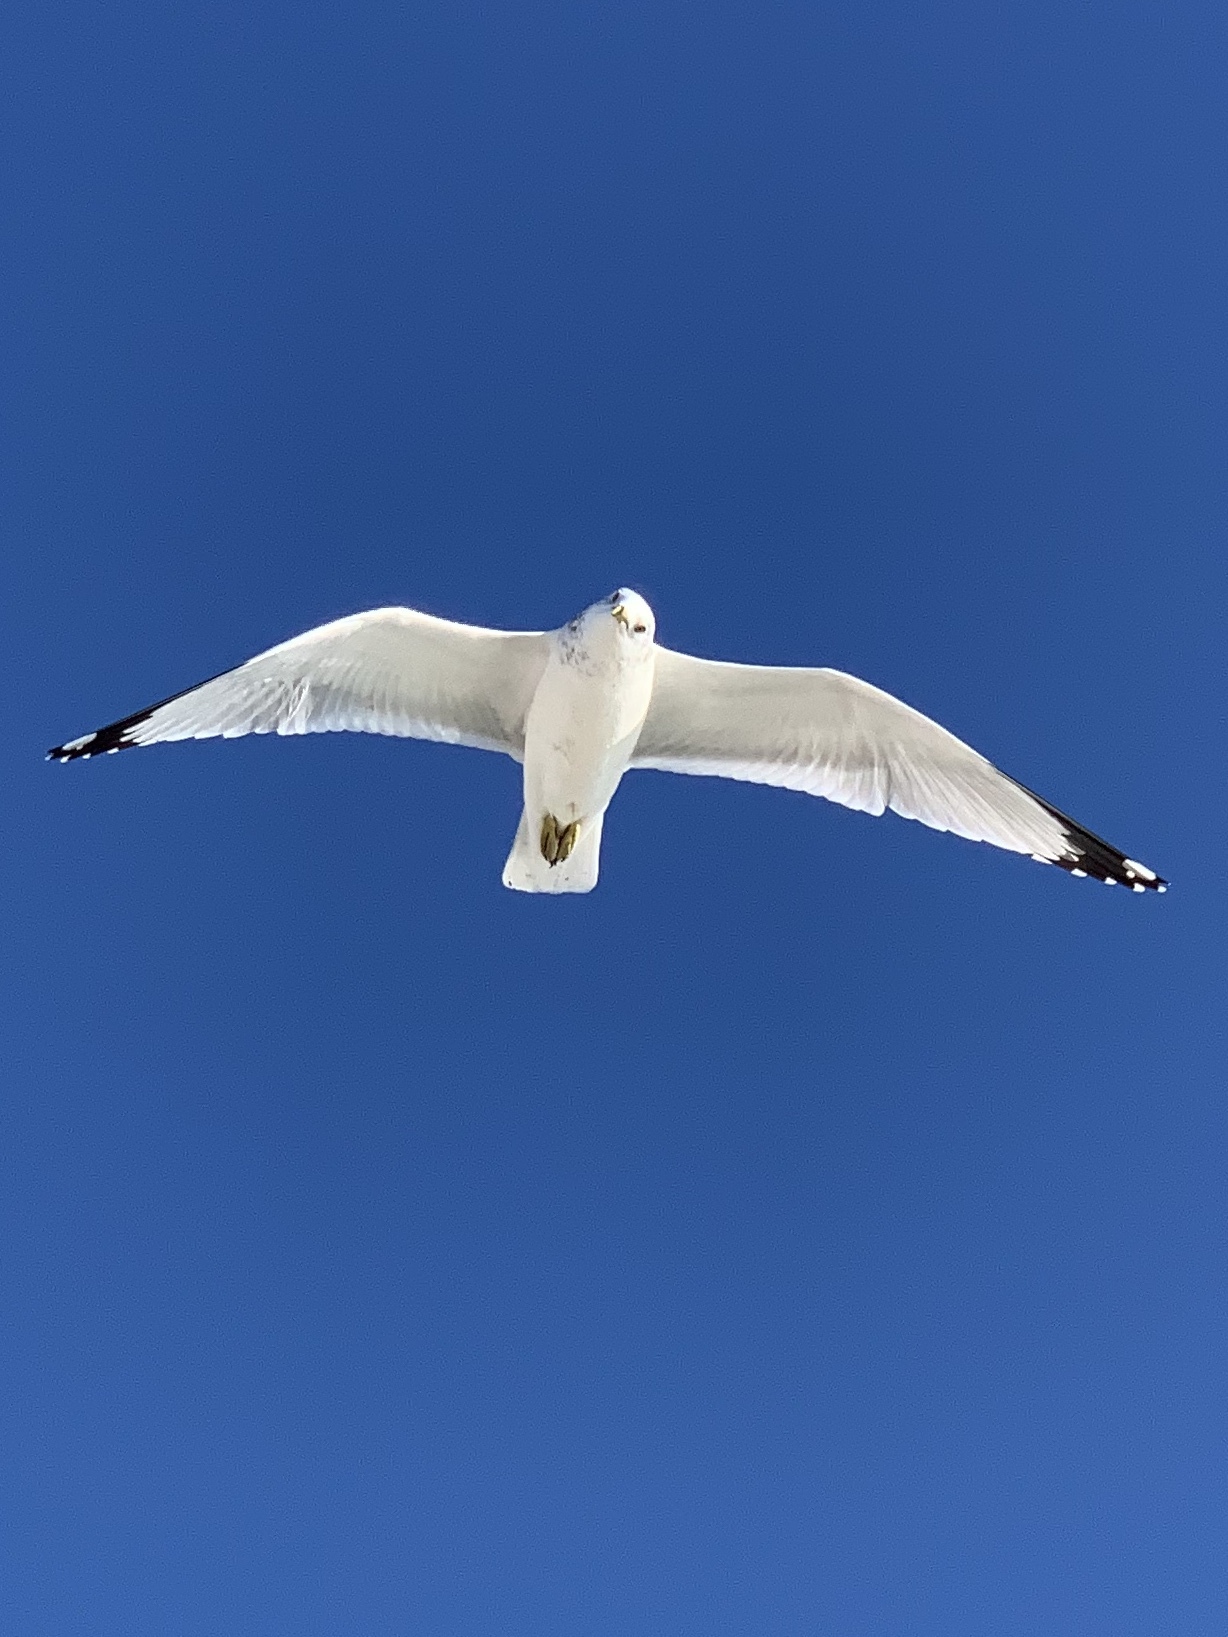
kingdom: Animalia
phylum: Chordata
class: Aves
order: Charadriiformes
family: Laridae
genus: Larus
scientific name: Larus delawarensis
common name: Ring-billed gull
